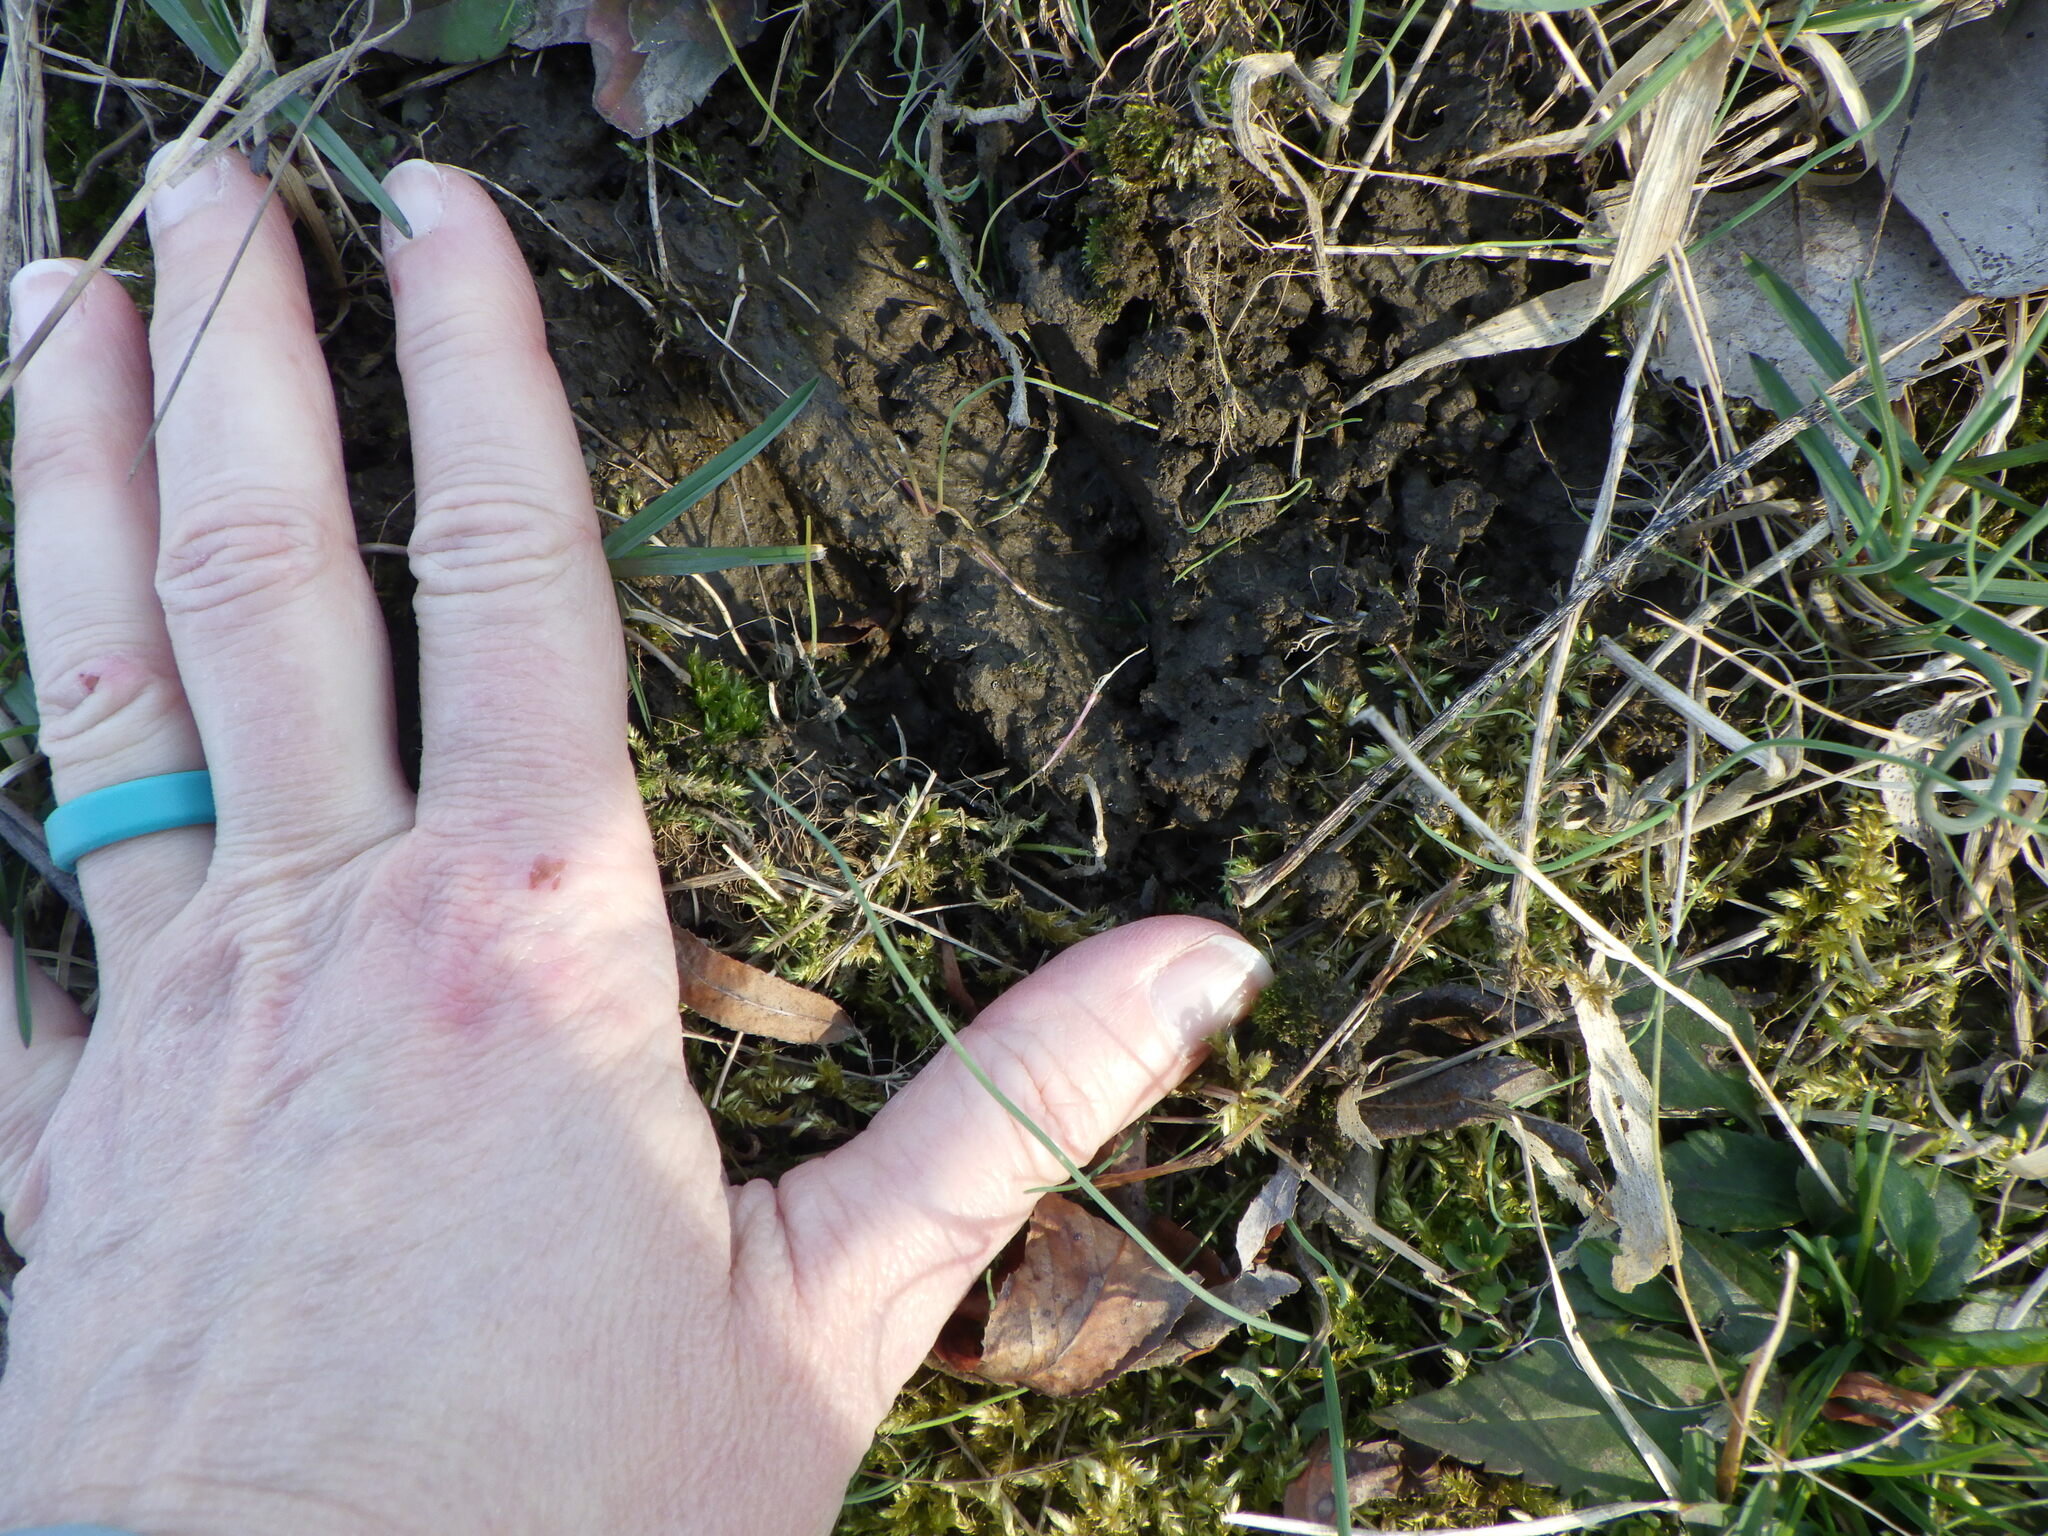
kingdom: Animalia
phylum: Chordata
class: Mammalia
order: Artiodactyla
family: Cervidae
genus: Odocoileus
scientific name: Odocoileus virginianus
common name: White-tailed deer
